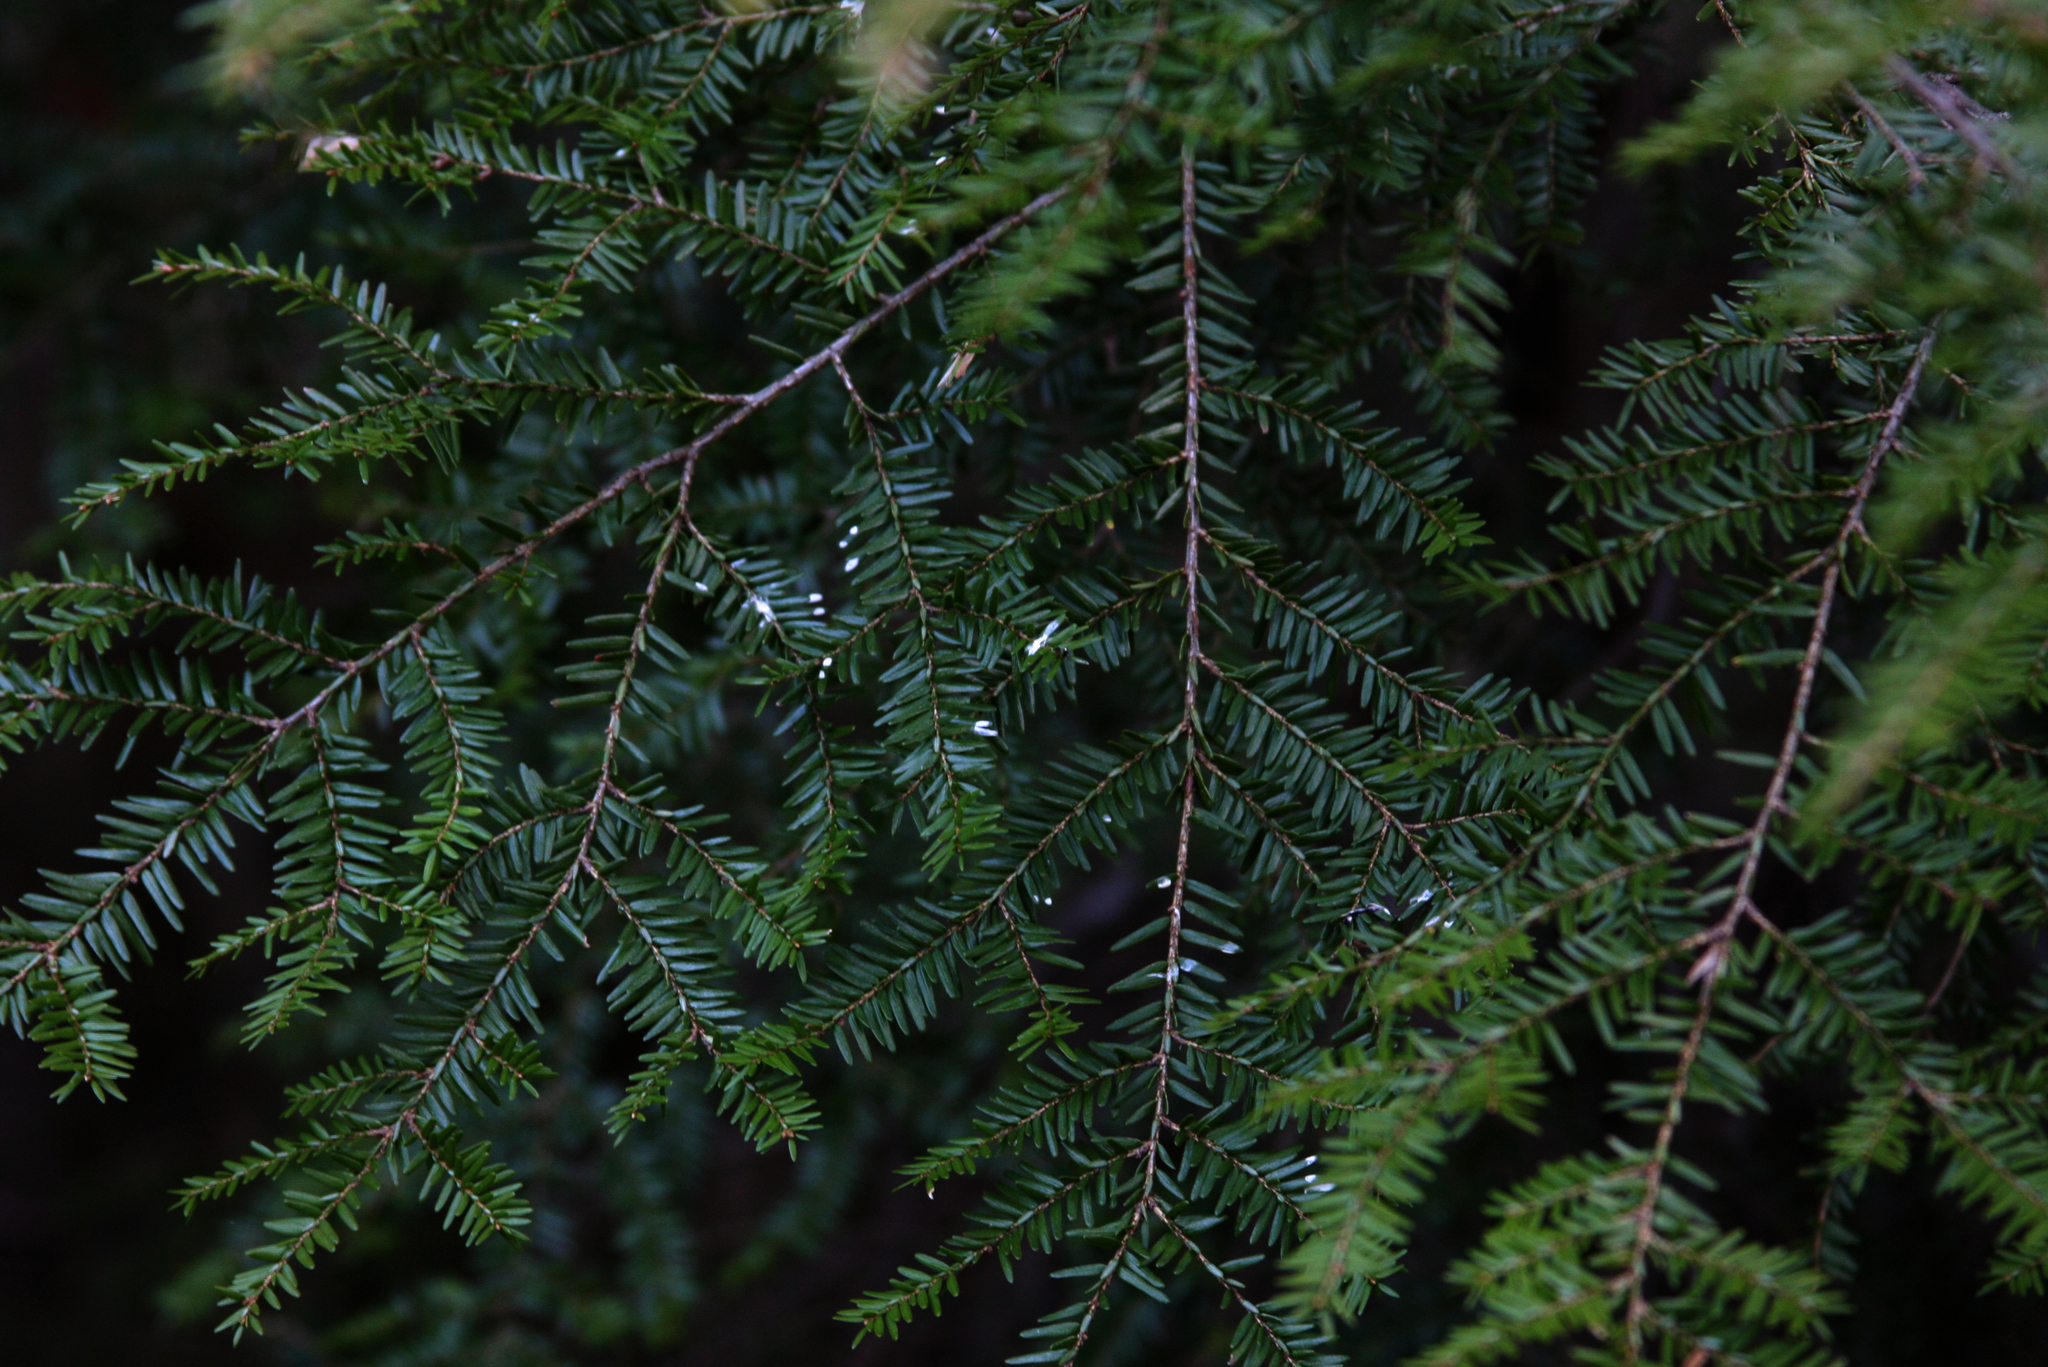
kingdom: Plantae
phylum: Tracheophyta
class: Pinopsida
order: Pinales
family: Pinaceae
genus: Tsuga
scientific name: Tsuga canadensis
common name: Eastern hemlock
